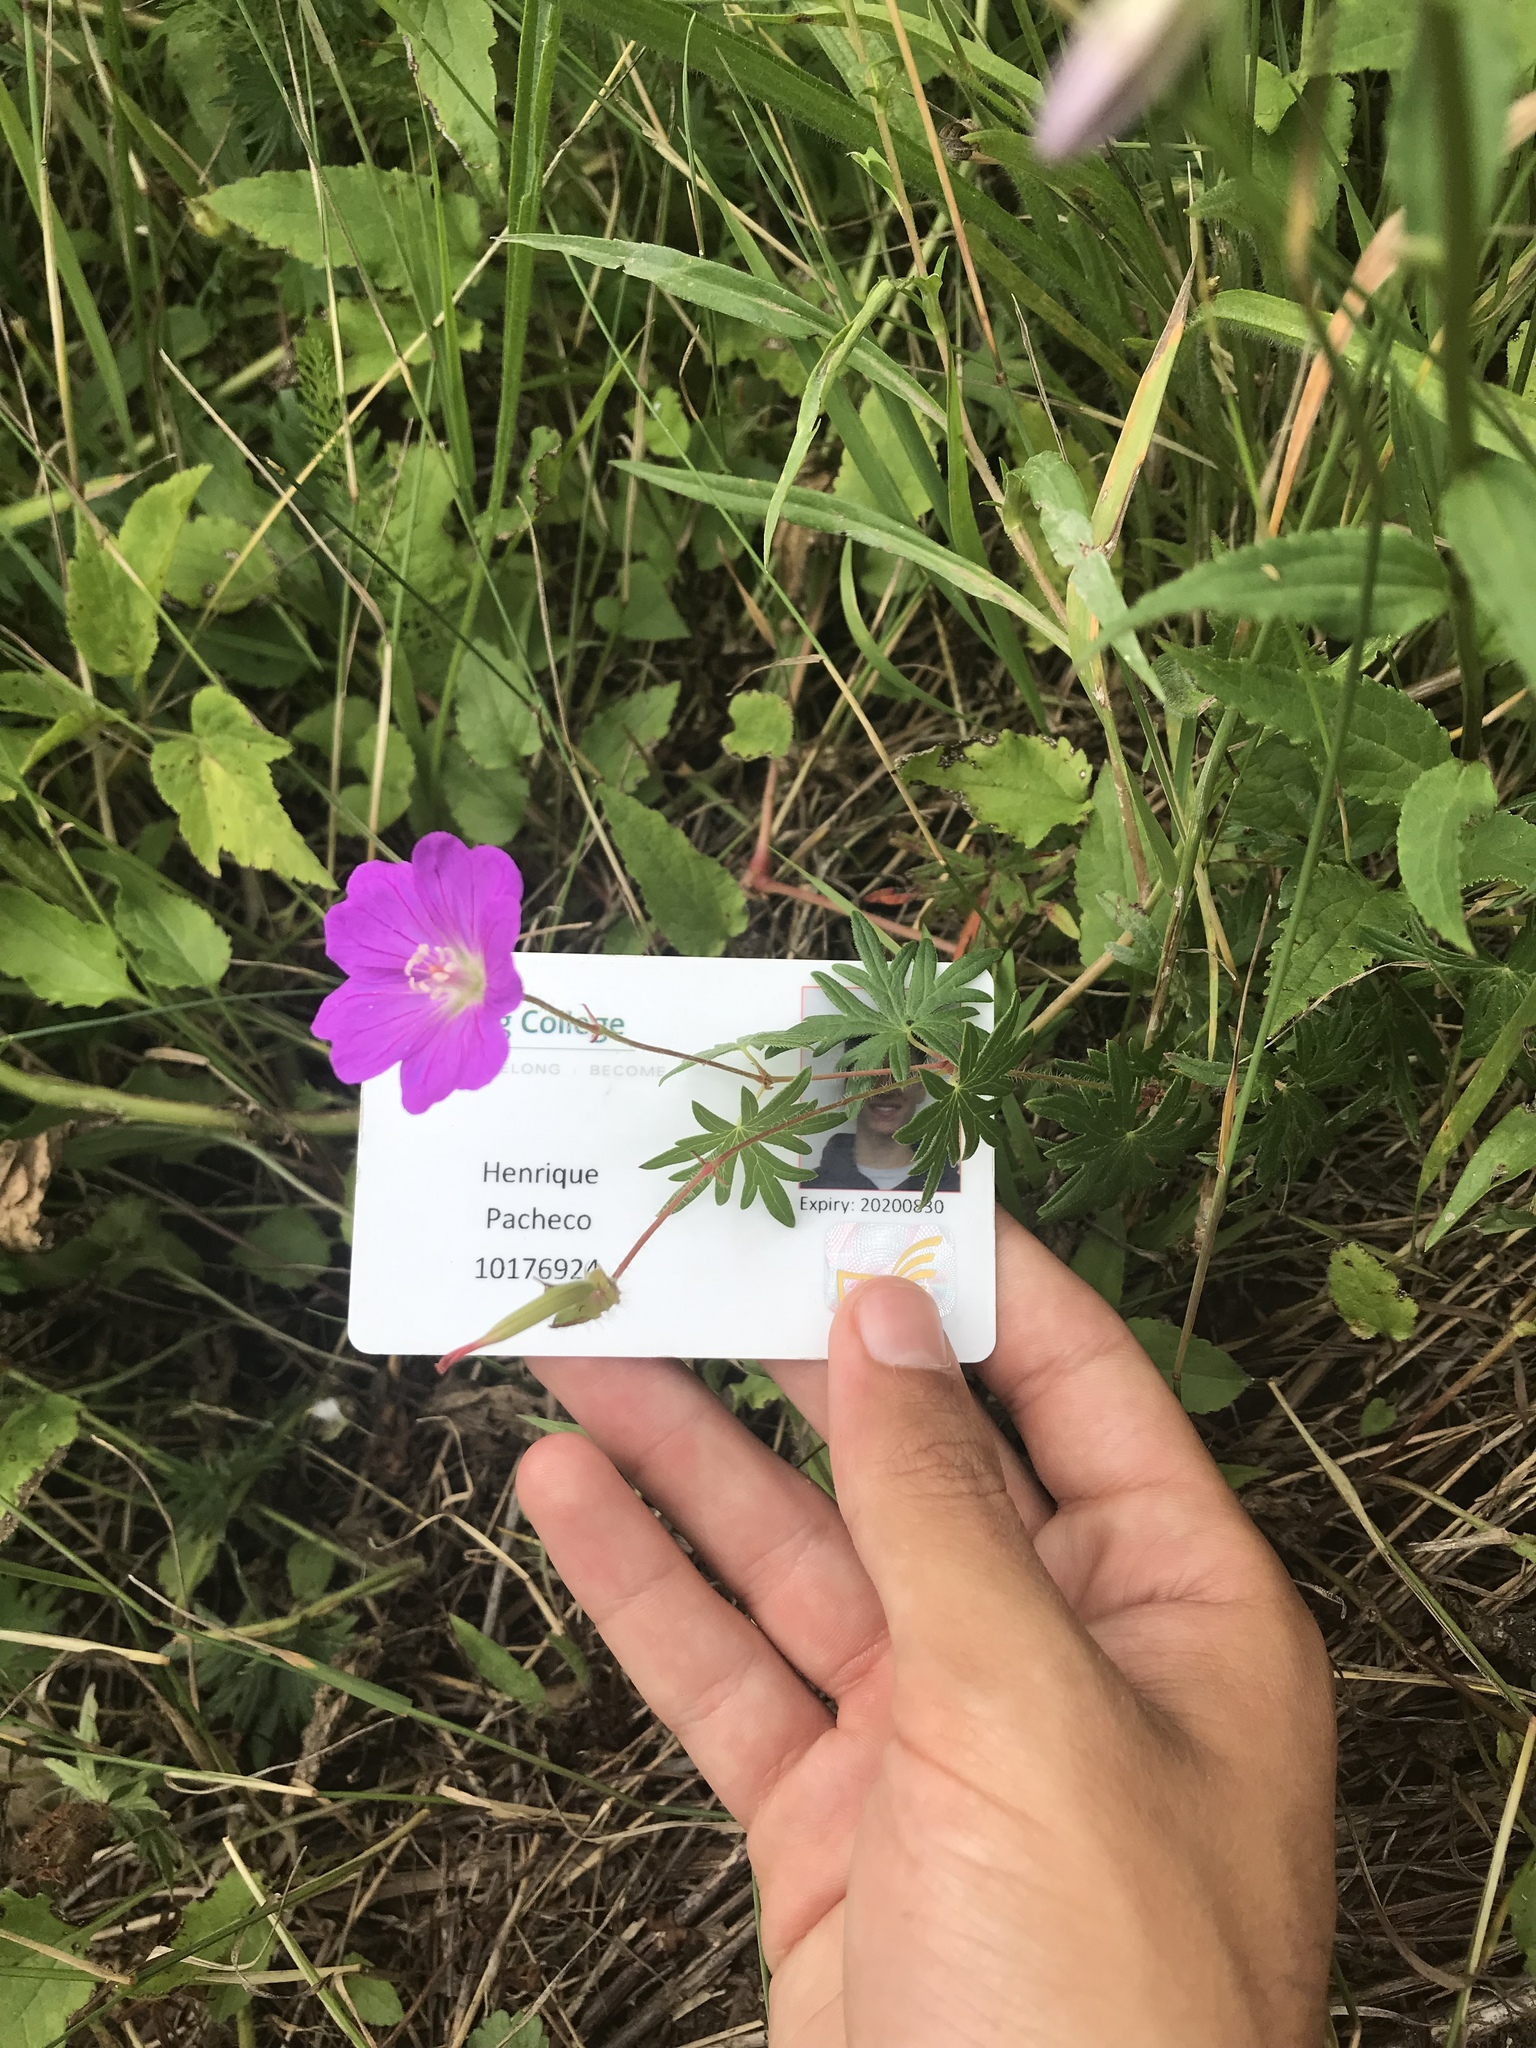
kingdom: Plantae
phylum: Tracheophyta
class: Magnoliopsida
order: Geraniales
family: Geraniaceae
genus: Geranium
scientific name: Geranium sanguineum
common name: Bloody crane's-bill
